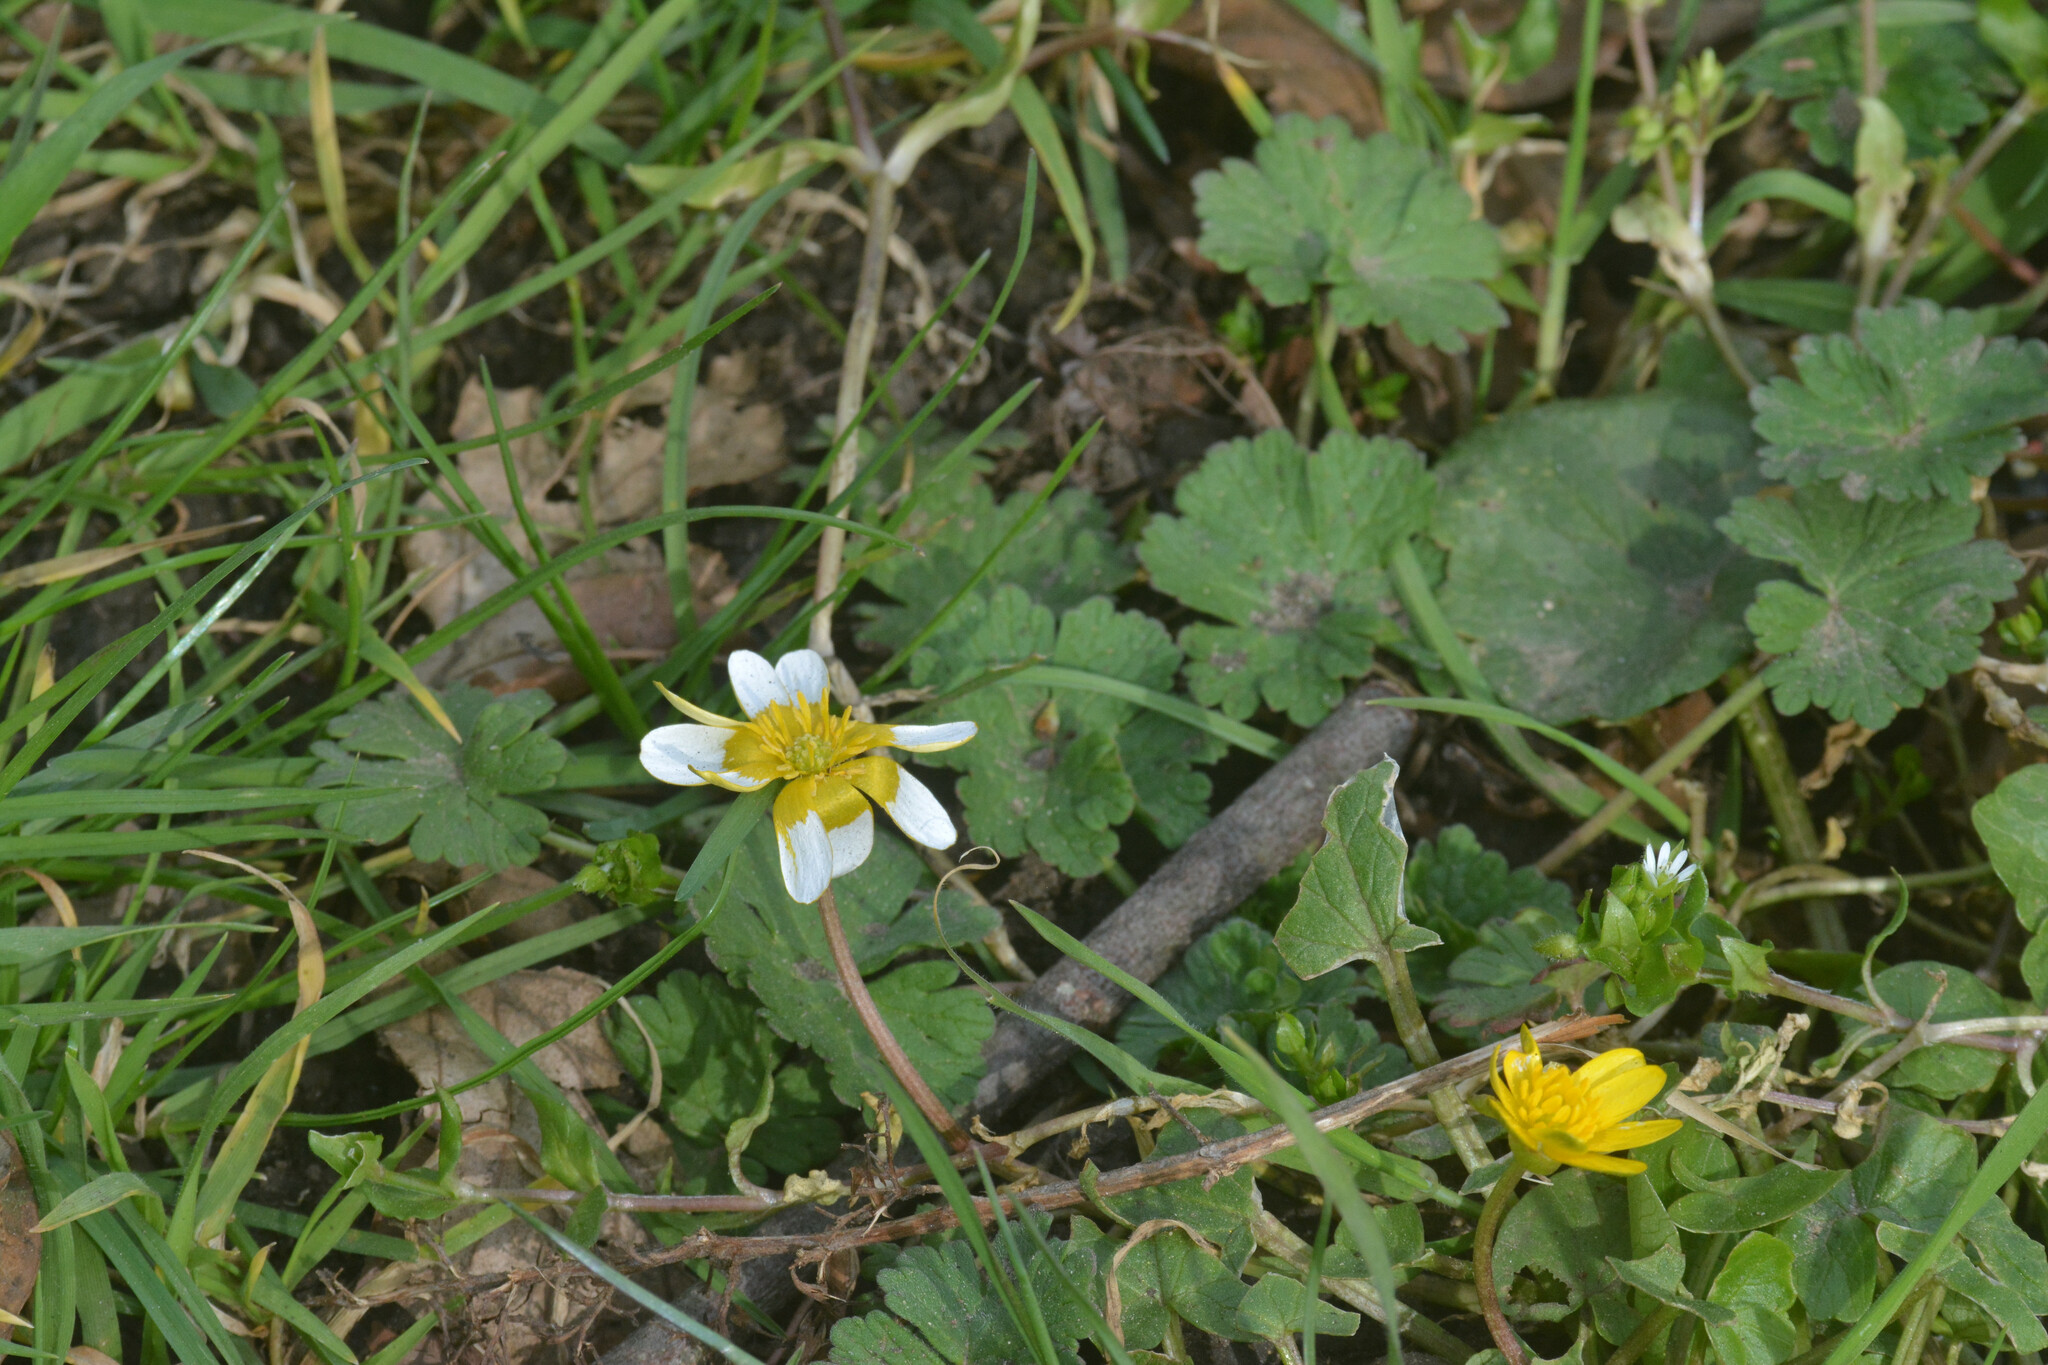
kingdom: Plantae
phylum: Tracheophyta
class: Magnoliopsida
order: Ranunculales
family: Ranunculaceae
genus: Ficaria
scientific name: Ficaria verna
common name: Lesser celandine
